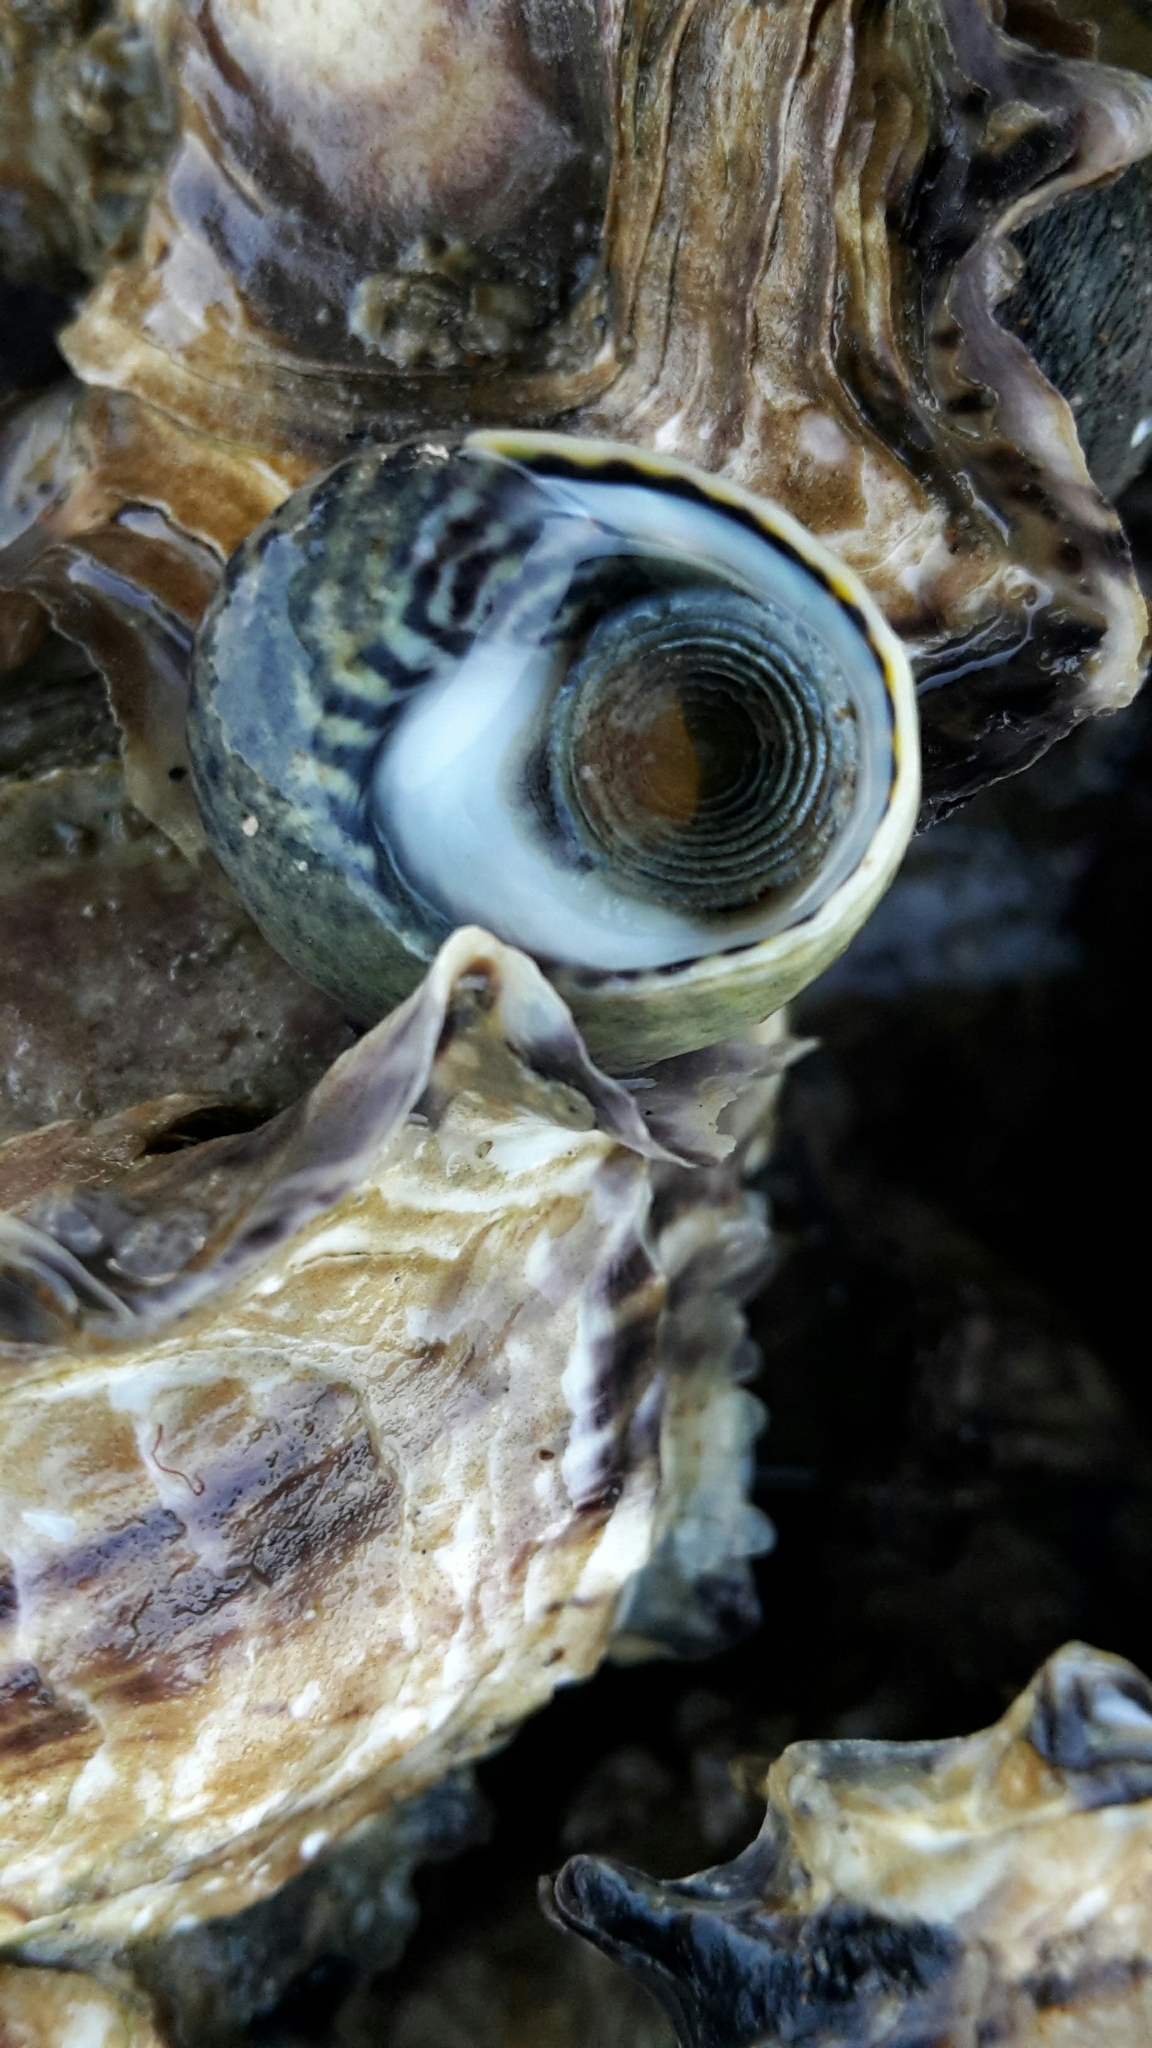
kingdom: Animalia
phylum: Mollusca
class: Gastropoda
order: Trochida
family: Trochidae
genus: Diloma
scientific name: Diloma subrostratum
